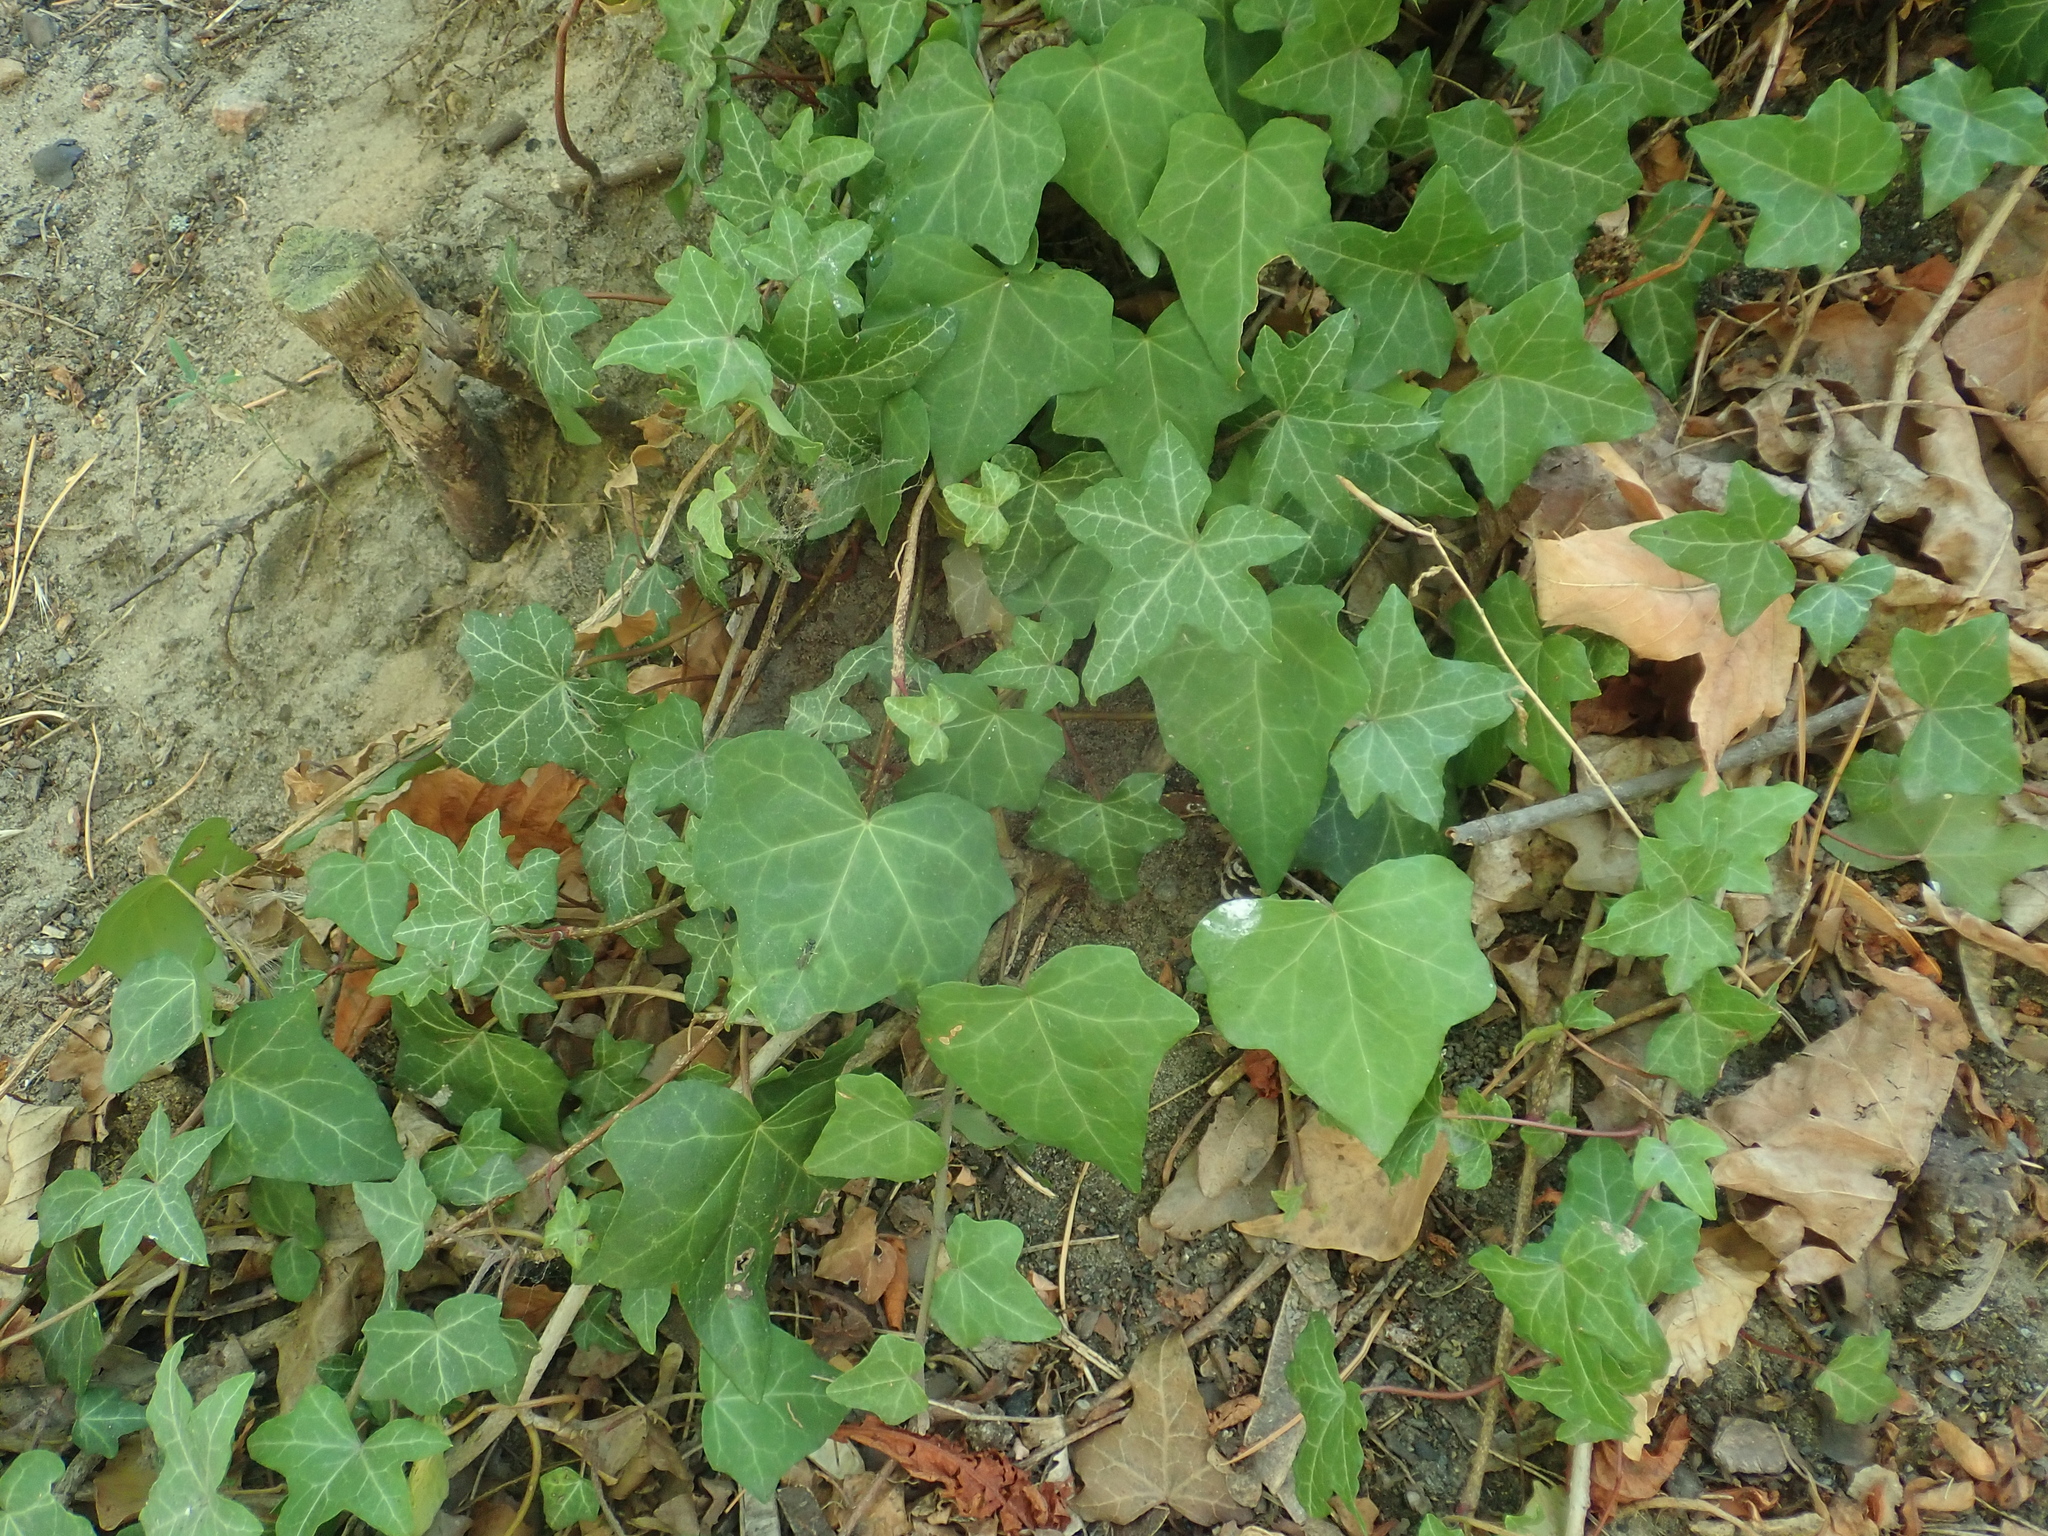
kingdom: Plantae
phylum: Tracheophyta
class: Magnoliopsida
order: Apiales
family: Araliaceae
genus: Hedera
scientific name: Hedera helix
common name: Ivy
